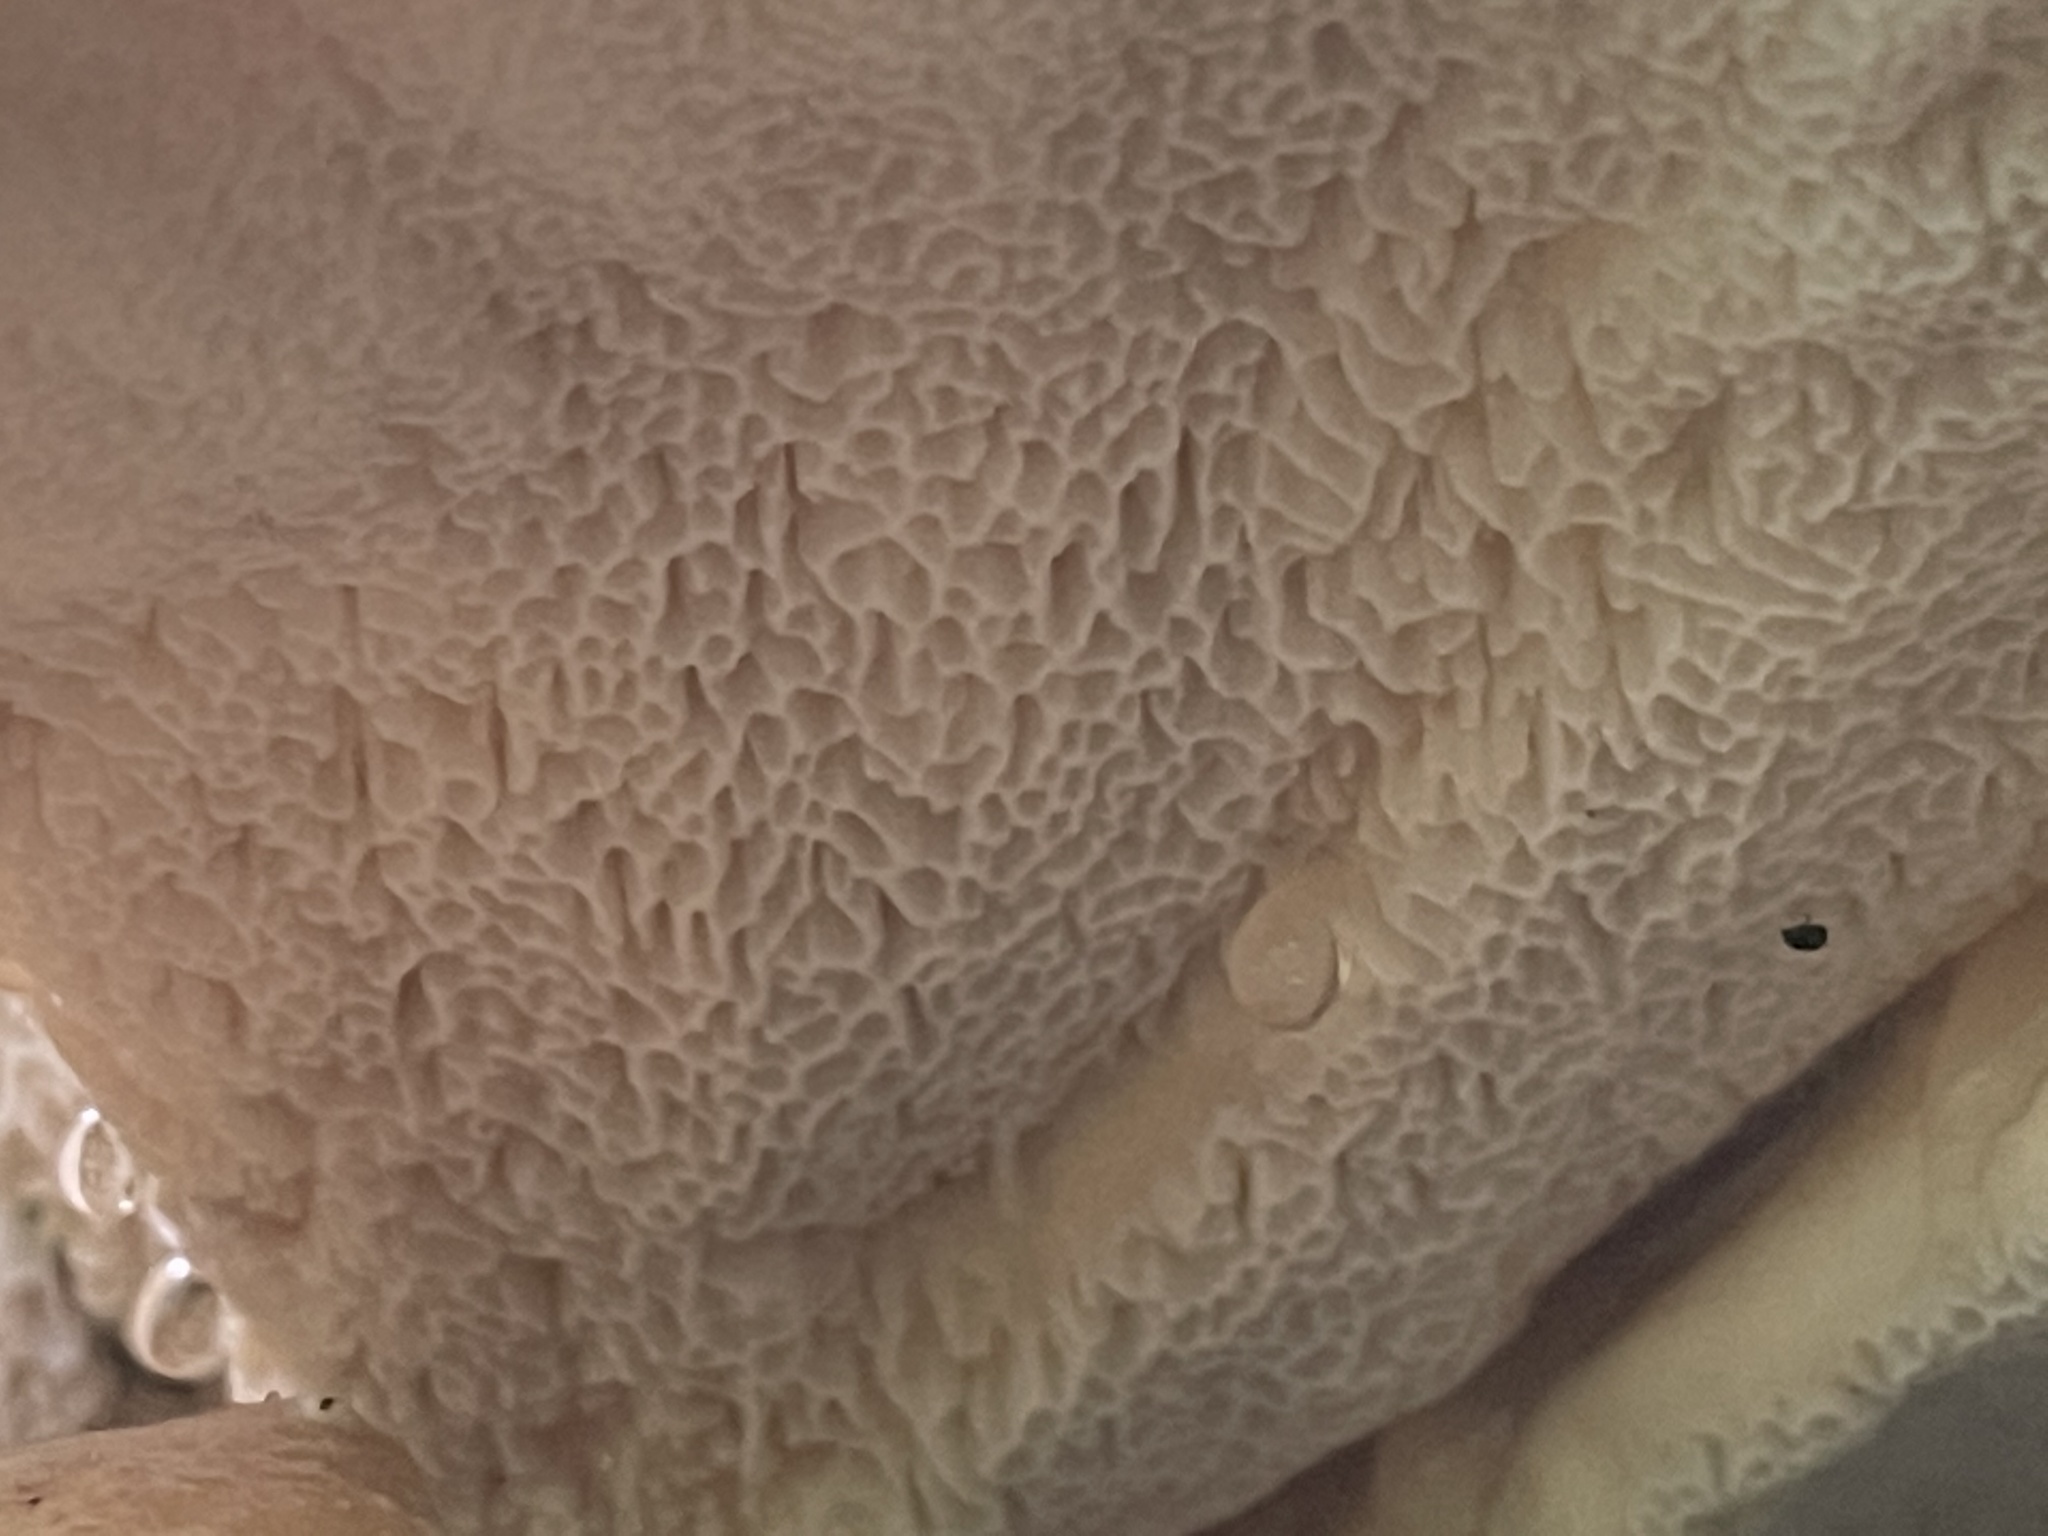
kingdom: Fungi
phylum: Basidiomycota
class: Agaricomycetes
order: Russulales
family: Bondarzewiaceae
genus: Bondarzewia
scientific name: Bondarzewia berkeleyi
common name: Berkeley's polypore
